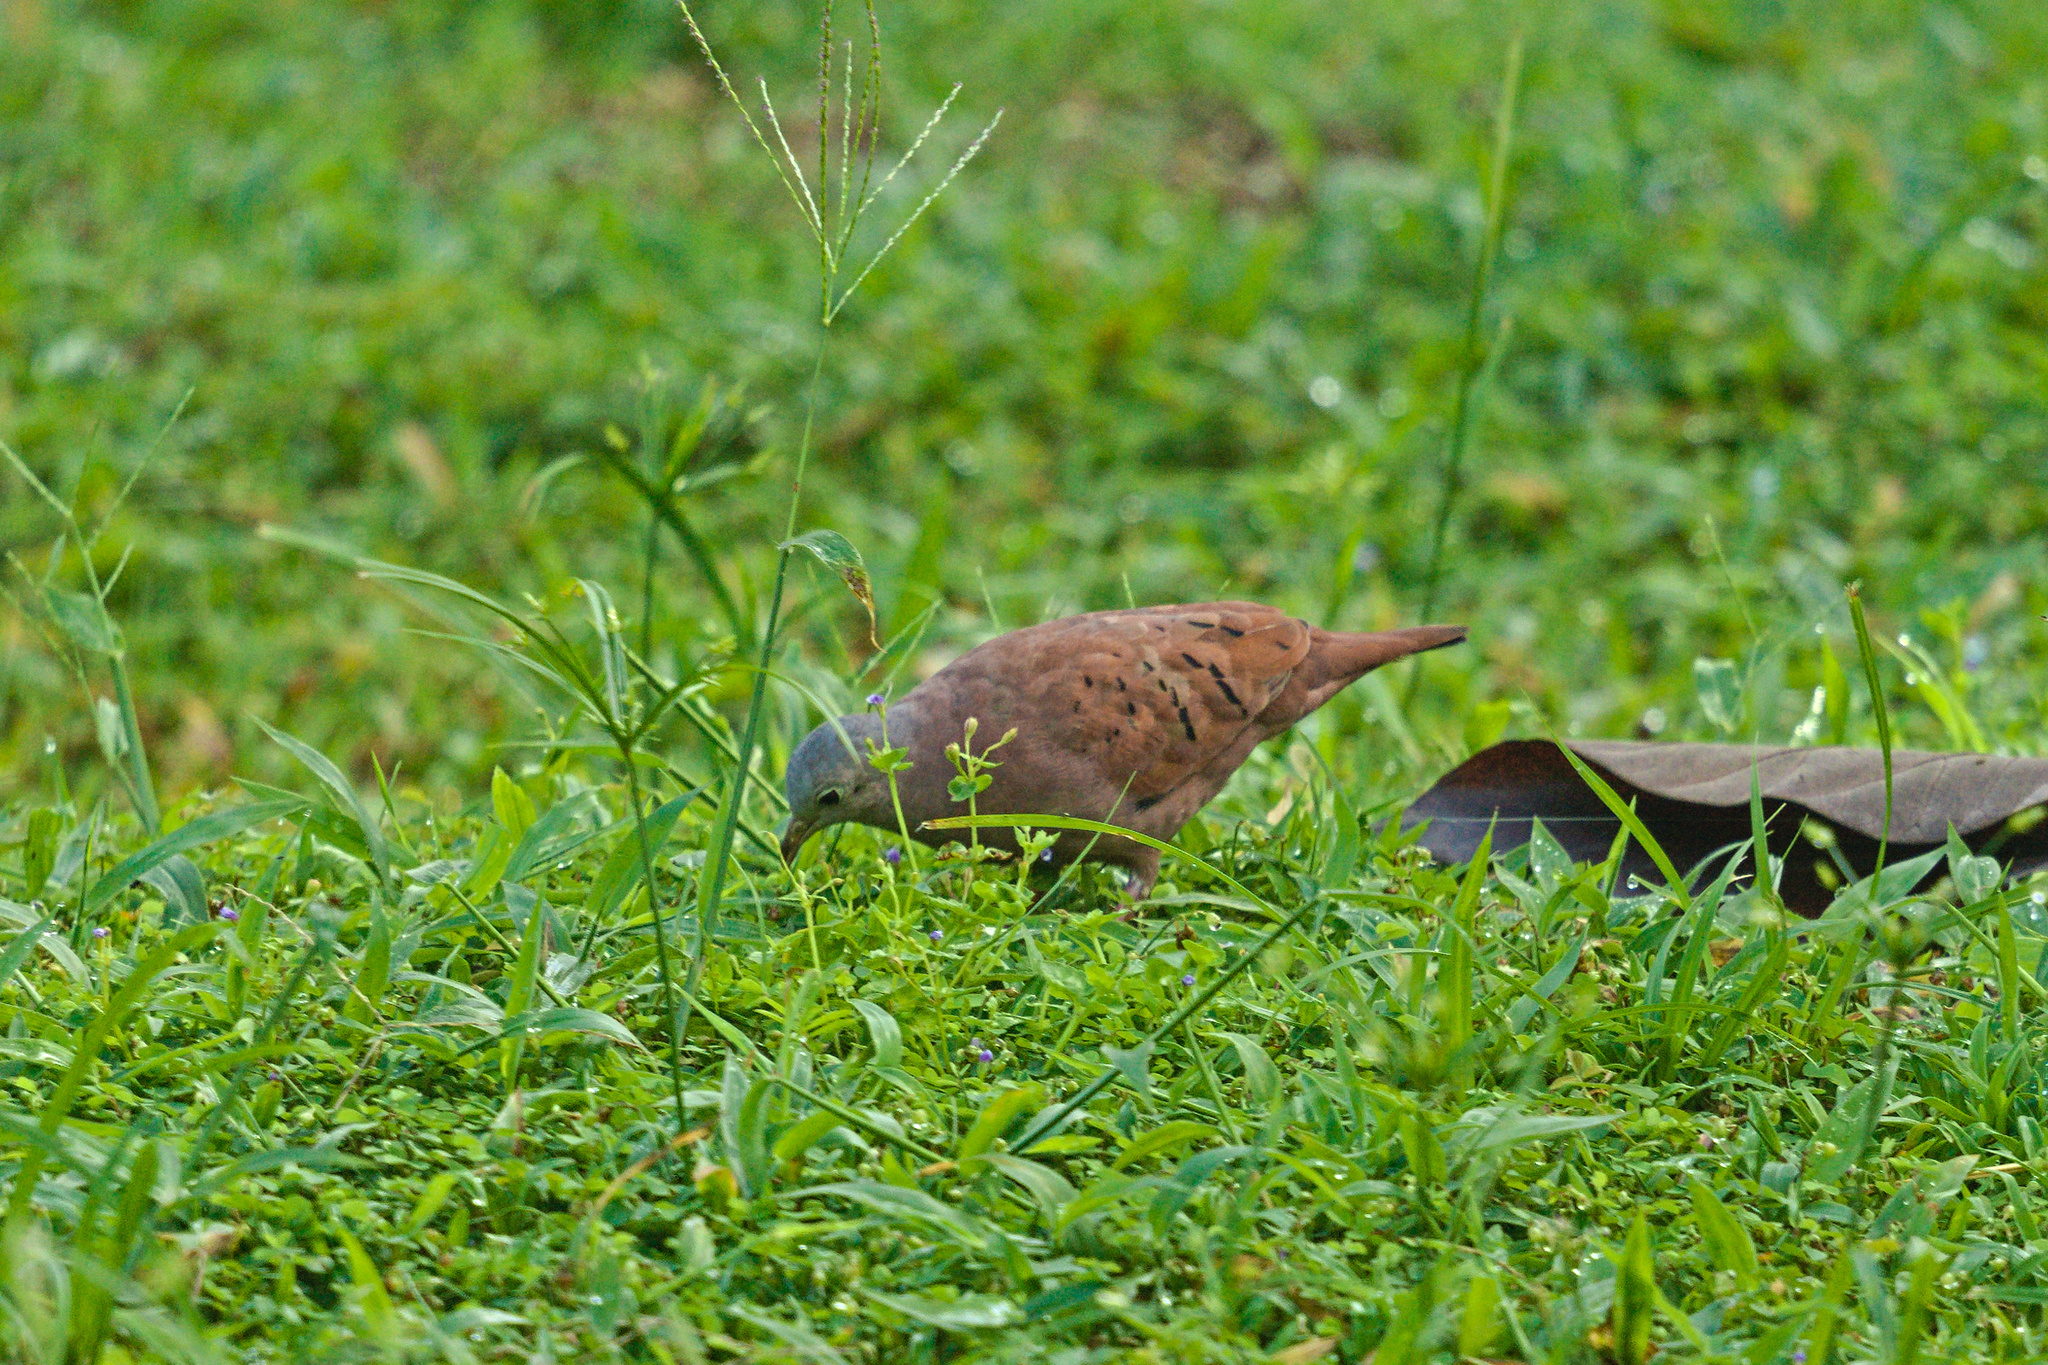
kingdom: Animalia
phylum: Chordata
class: Aves
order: Columbiformes
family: Columbidae
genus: Columbina
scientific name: Columbina talpacoti
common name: Ruddy ground dove
